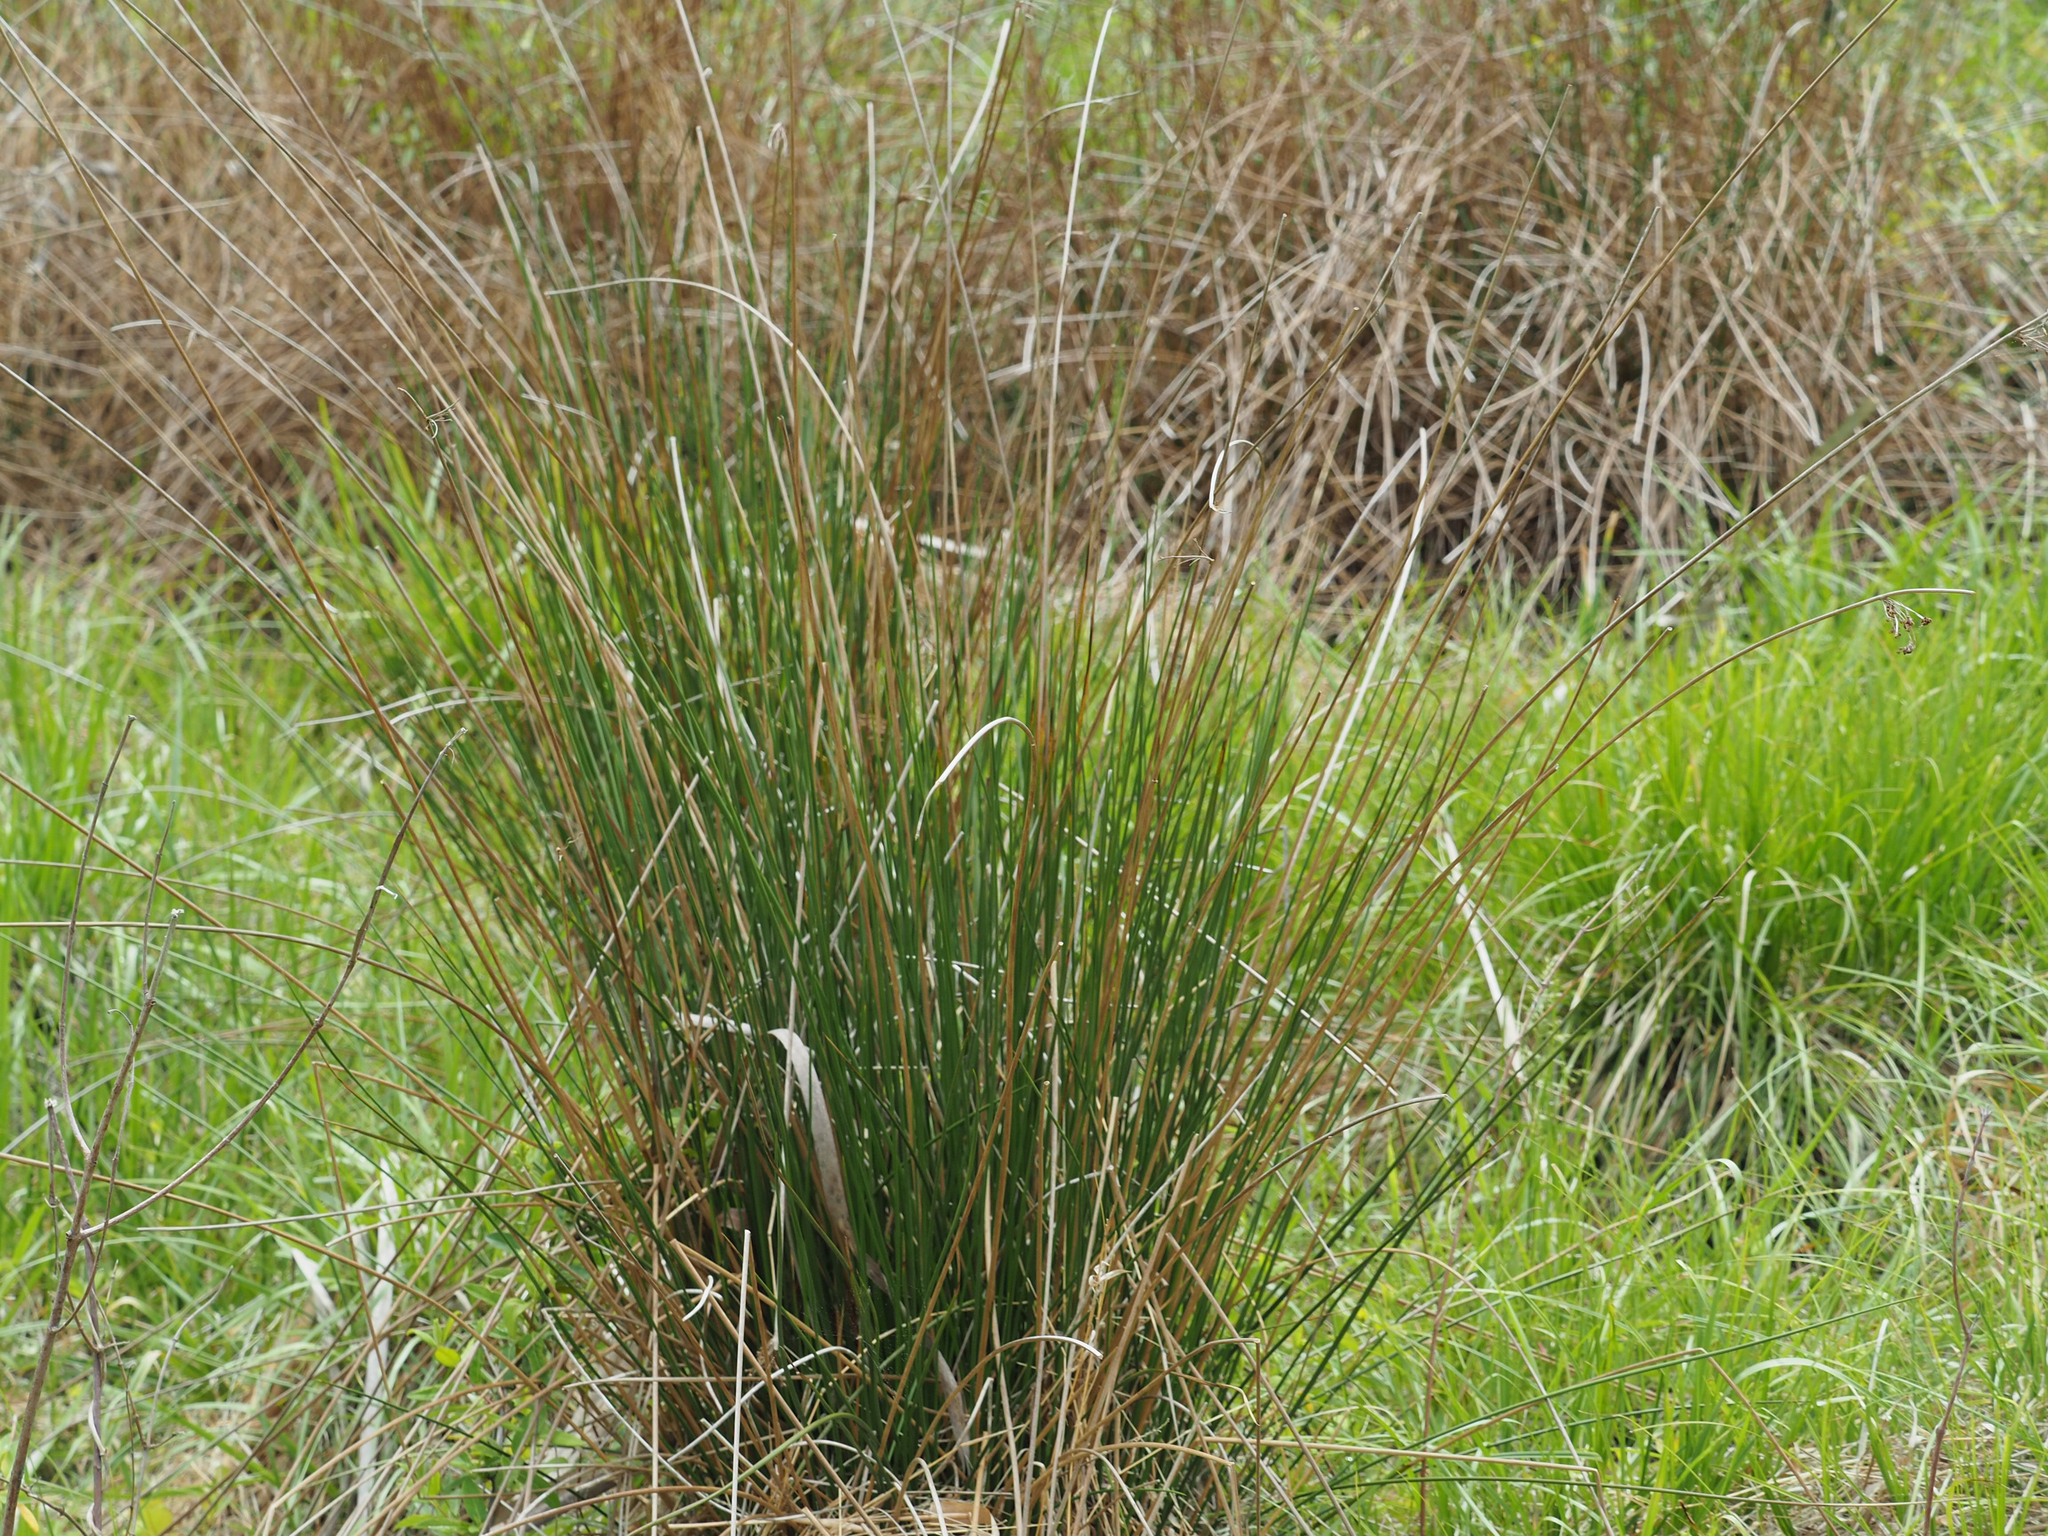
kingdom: Plantae
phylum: Tracheophyta
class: Liliopsida
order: Poales
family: Juncaceae
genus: Juncus
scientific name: Juncus effusus
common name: Soft rush
